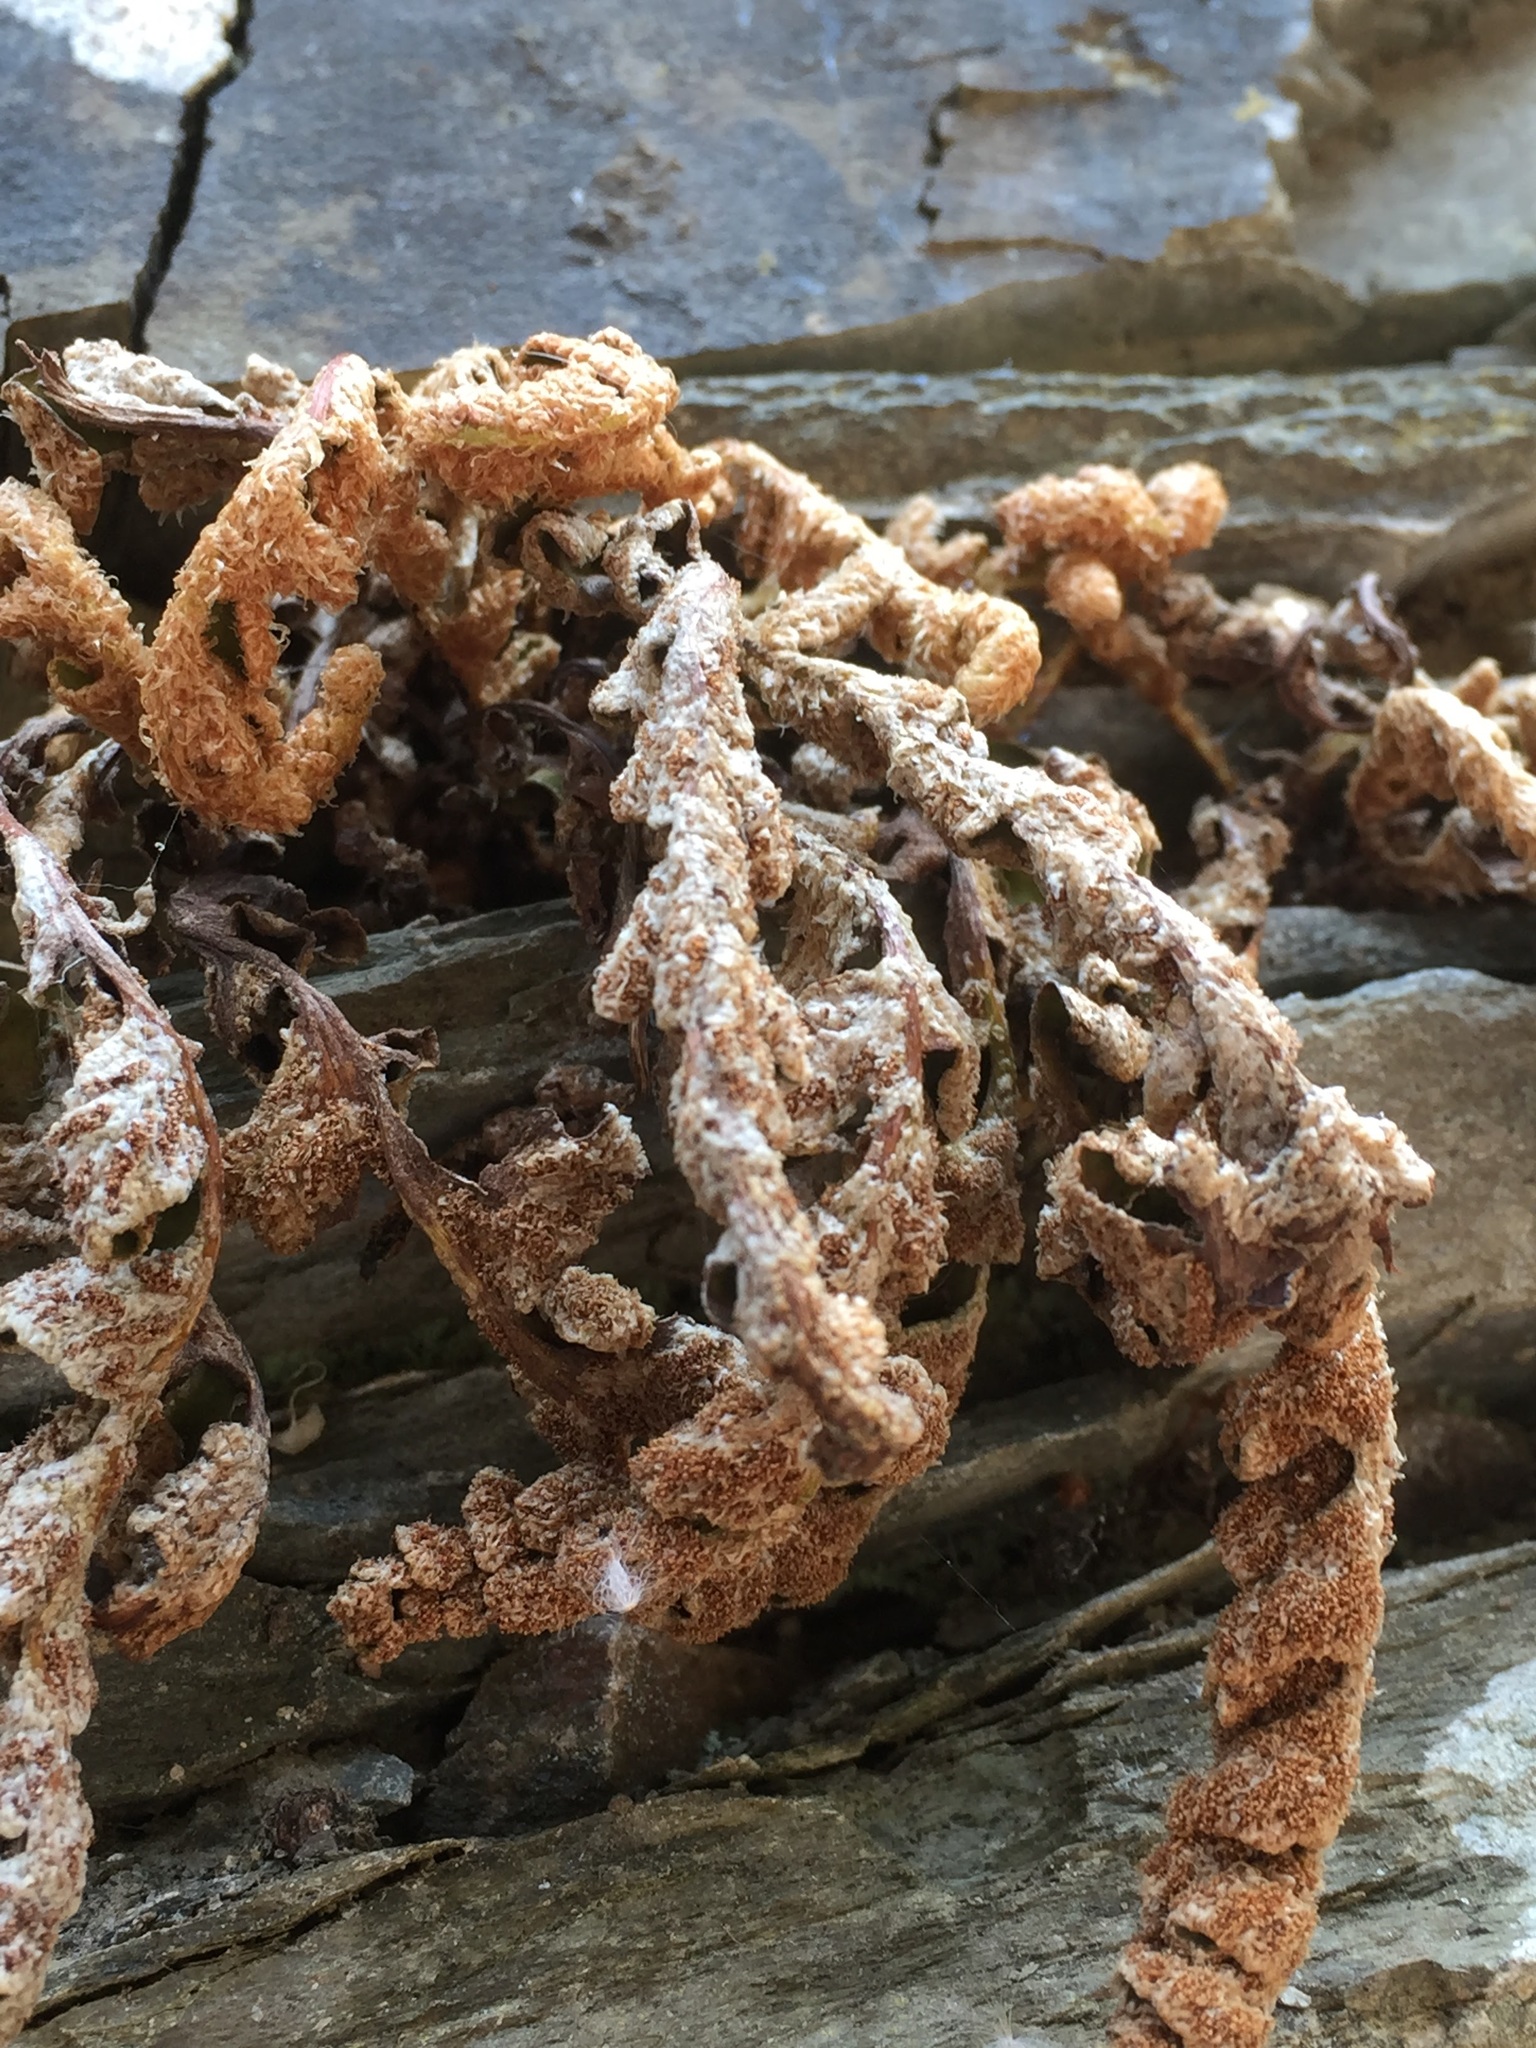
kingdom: Plantae
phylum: Tracheophyta
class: Polypodiopsida
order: Polypodiales
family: Aspleniaceae
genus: Asplenium
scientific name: Asplenium ceterach
